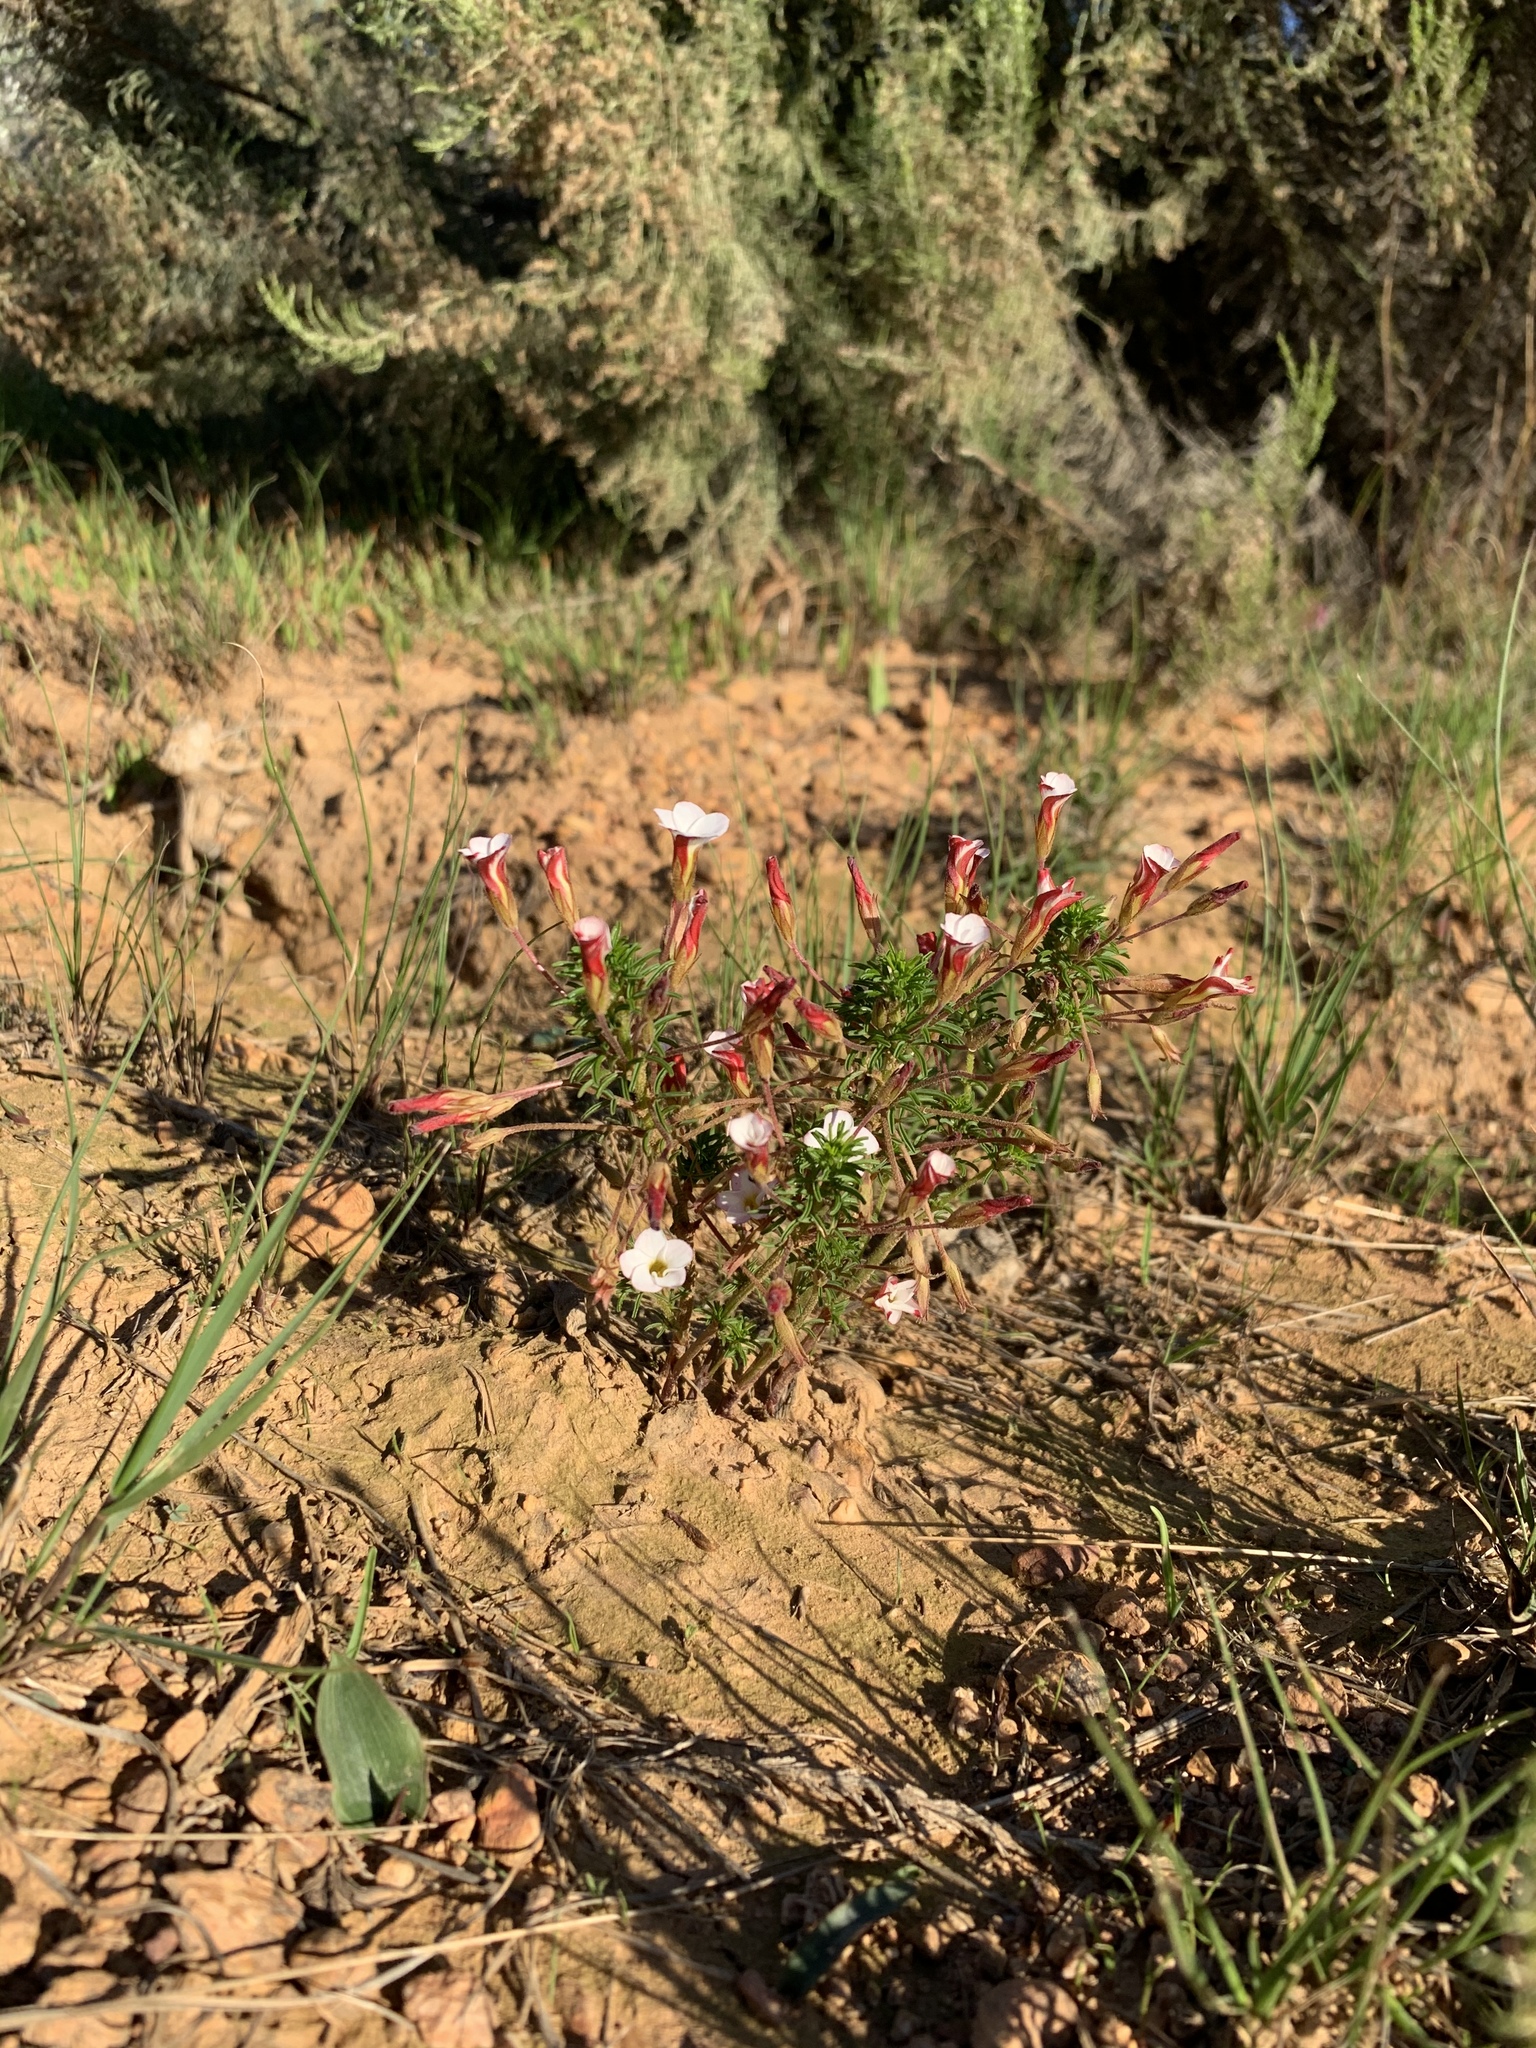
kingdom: Plantae
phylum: Tracheophyta
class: Magnoliopsida
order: Oxalidales
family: Oxalidaceae
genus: Oxalis
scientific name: Oxalis tenuifolia
